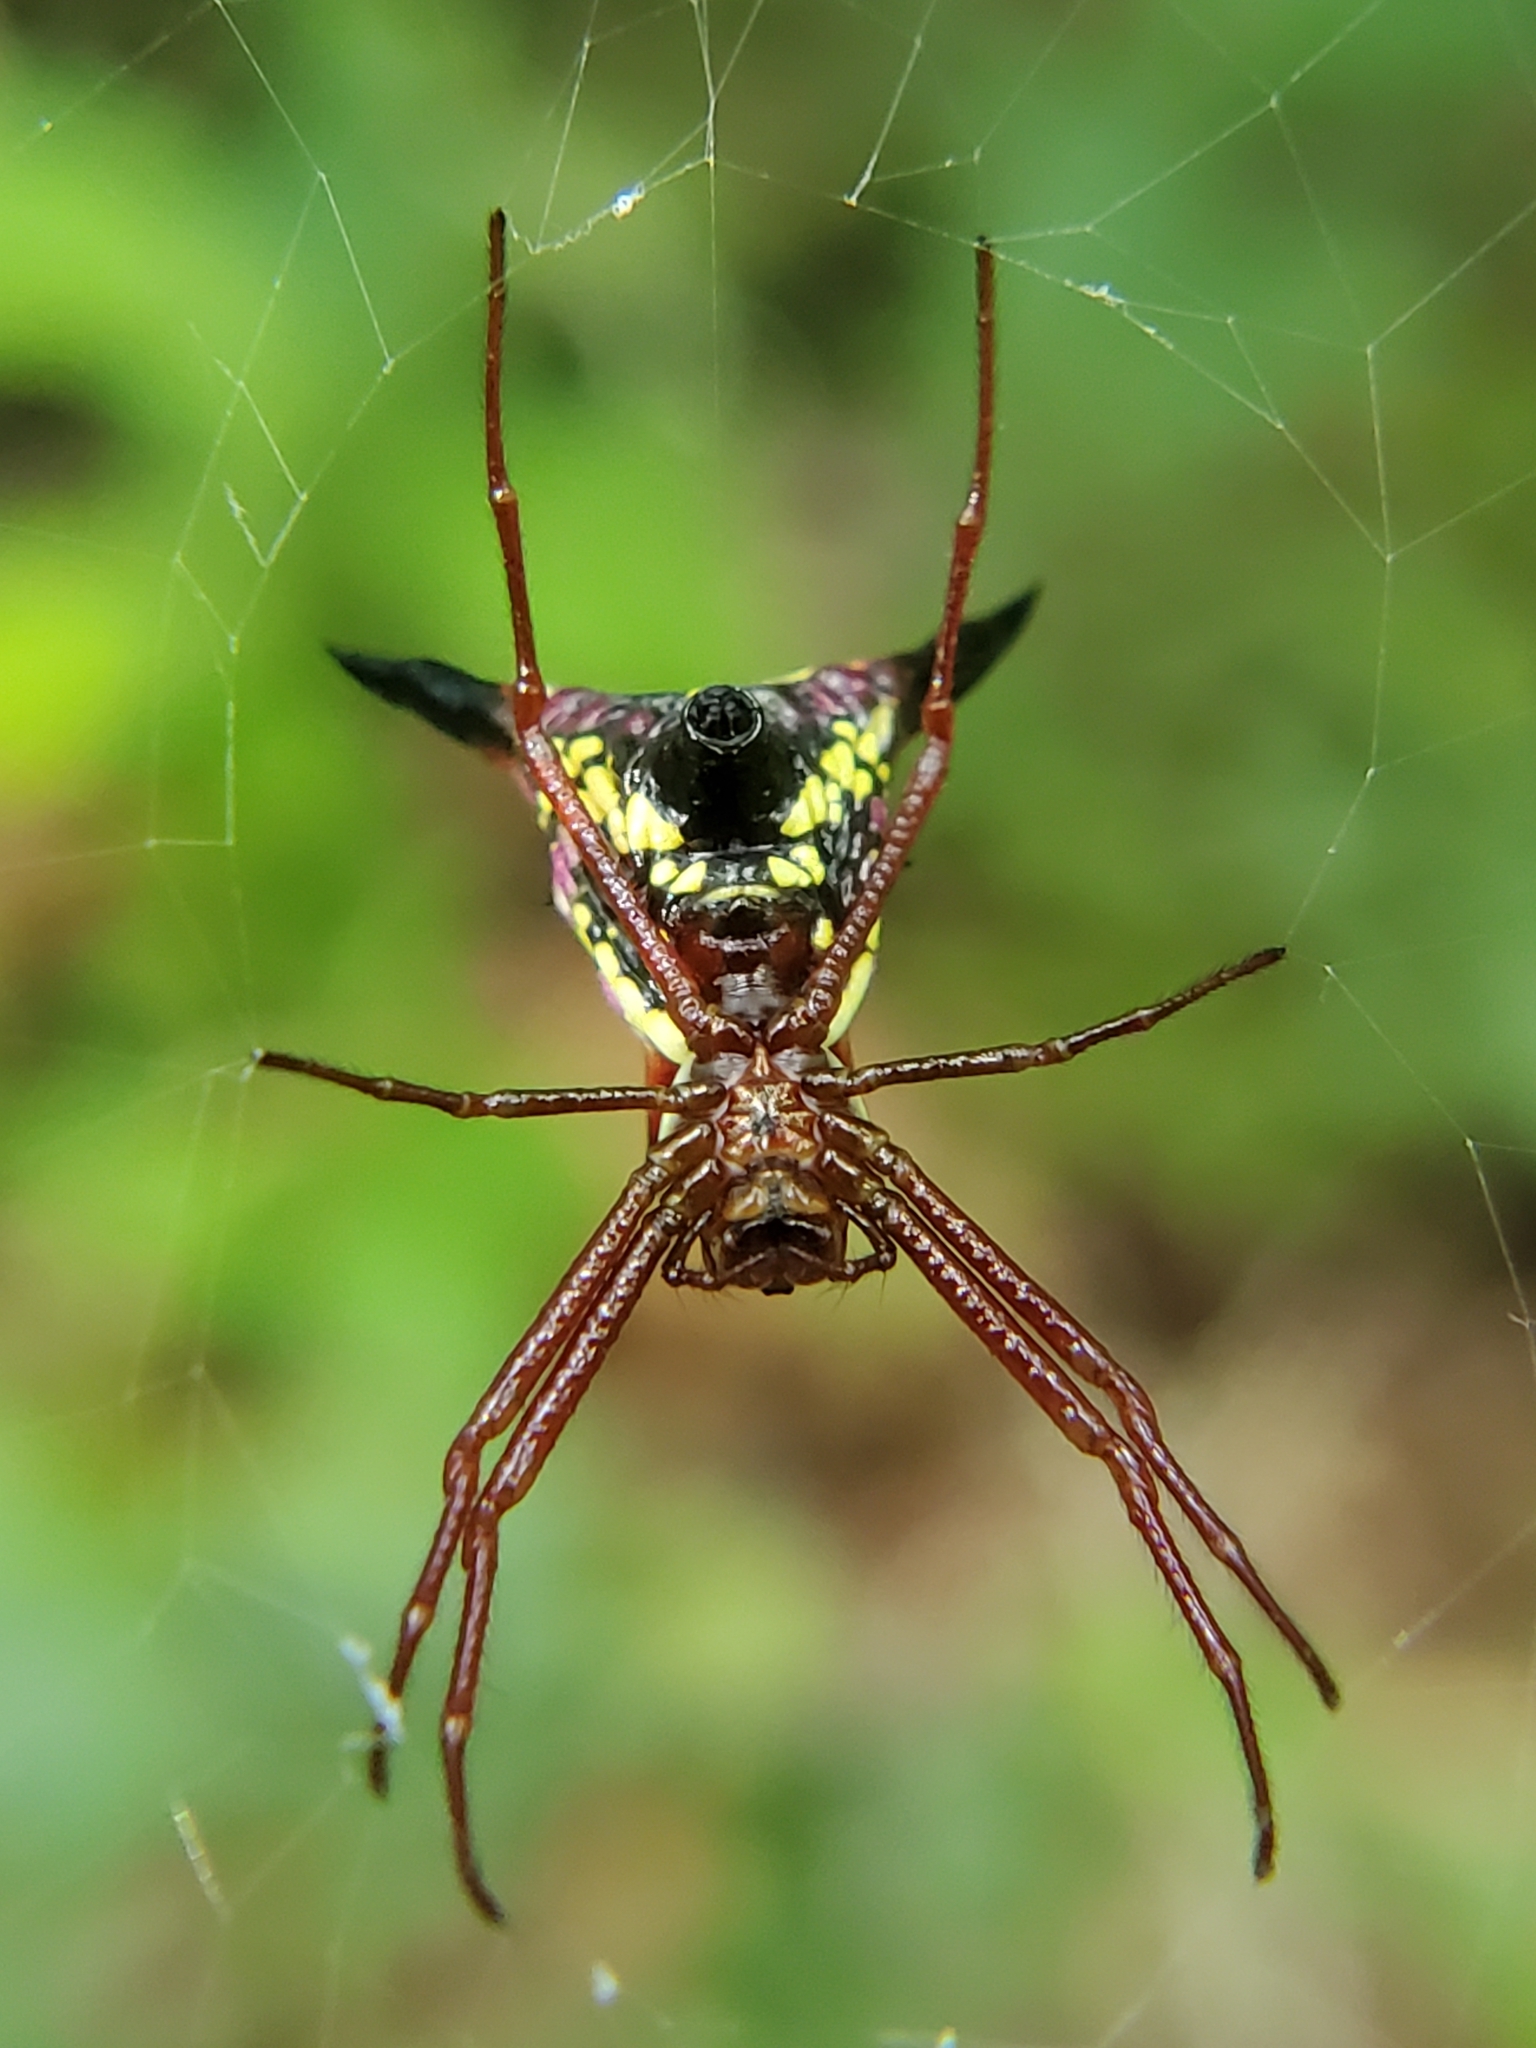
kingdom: Animalia
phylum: Arthropoda
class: Arachnida
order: Araneae
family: Araneidae
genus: Micrathena
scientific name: Micrathena sagittata
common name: Orb weavers
